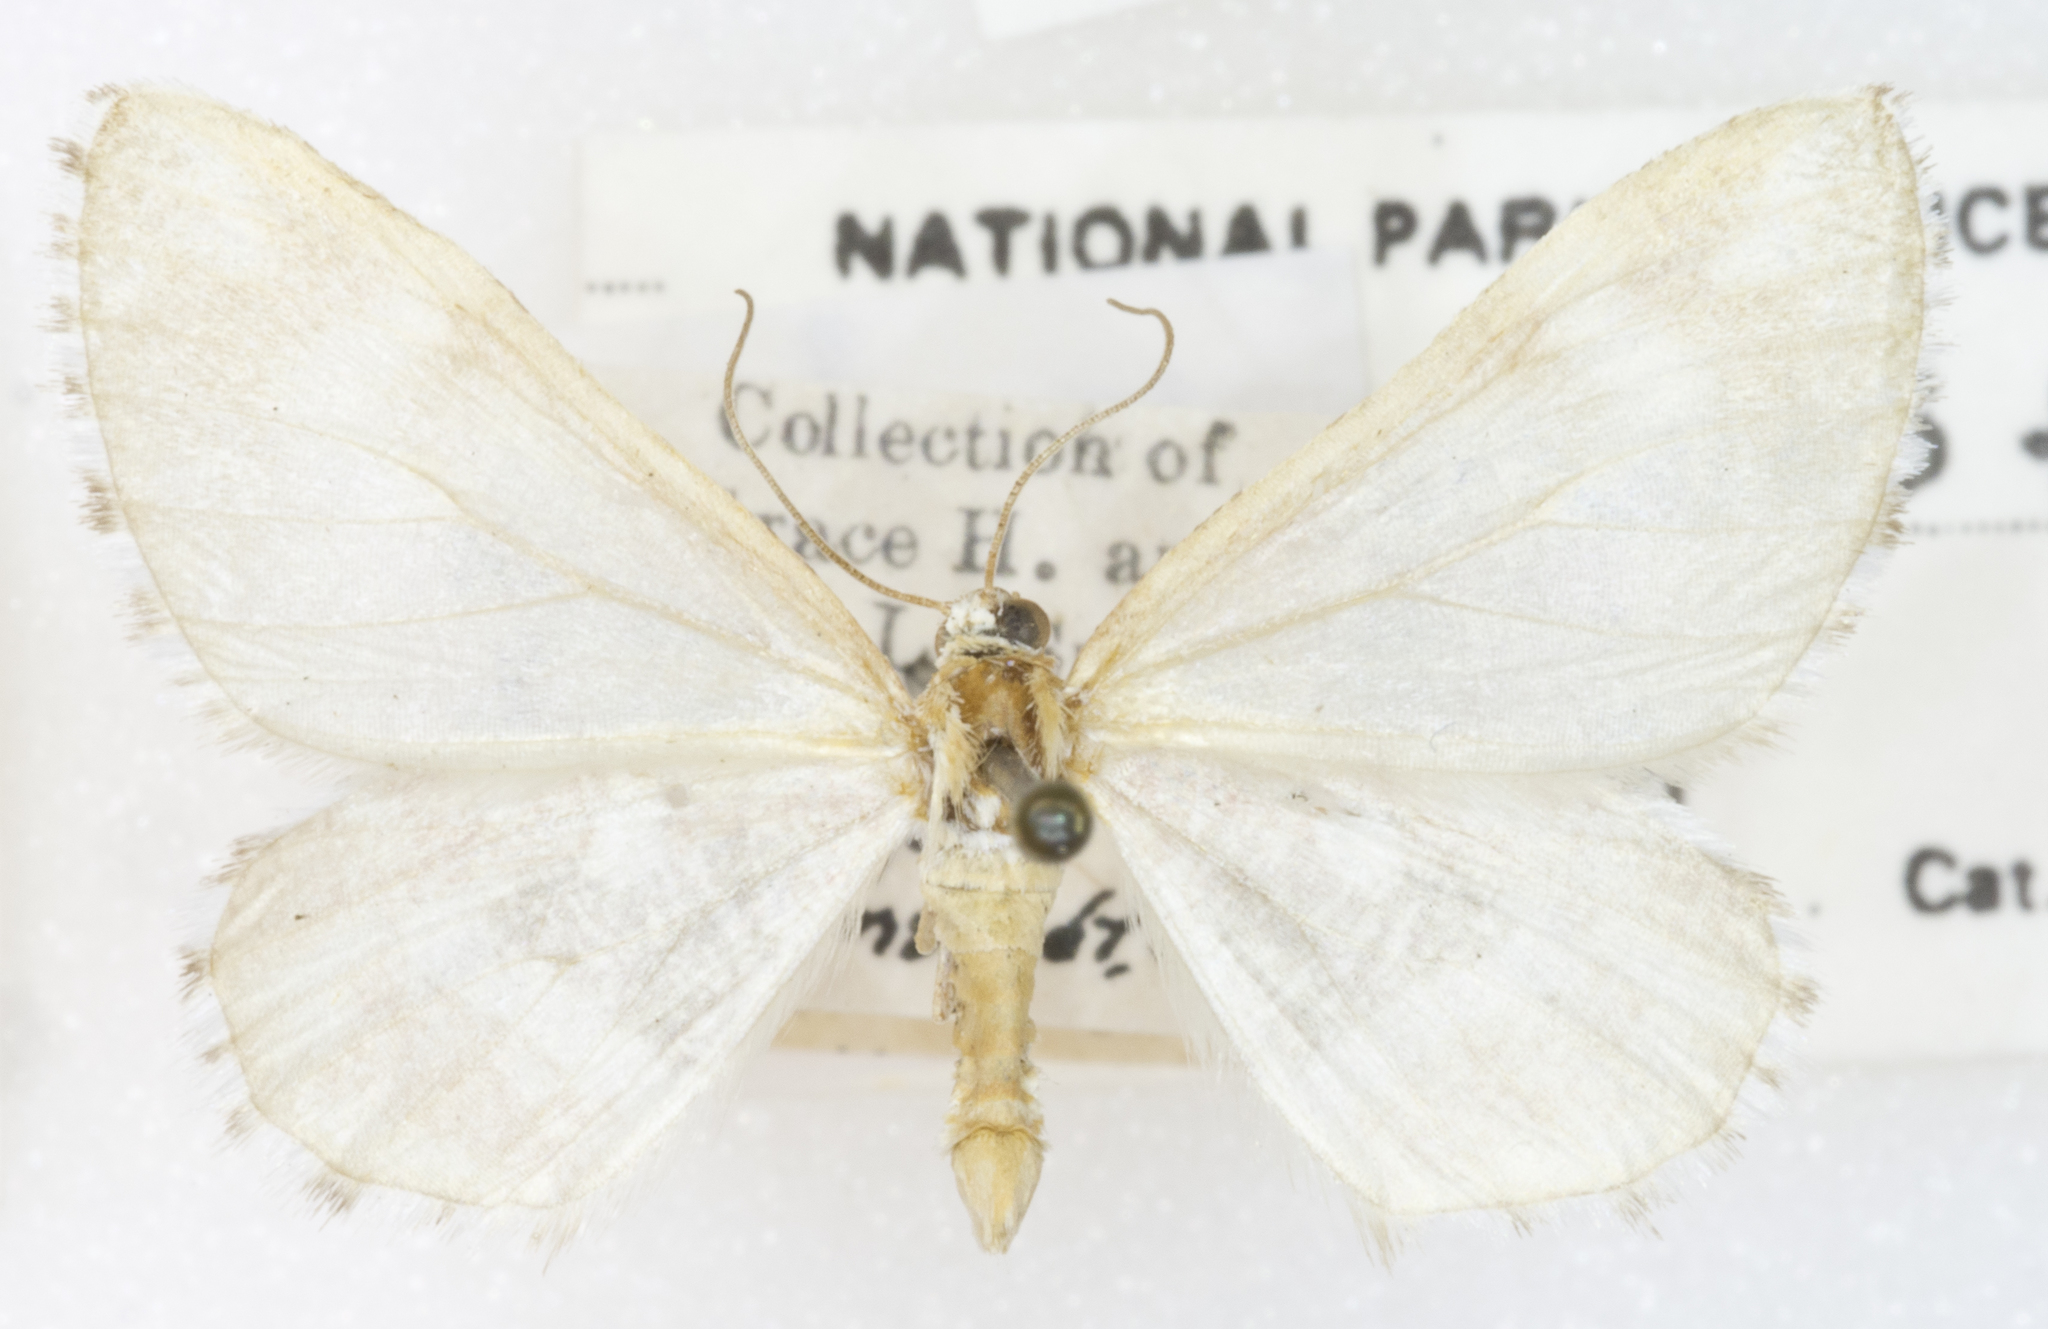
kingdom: Animalia
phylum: Arthropoda
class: Insecta
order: Lepidoptera
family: Geometridae
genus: Stamnodes
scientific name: Stamnodes formosata
